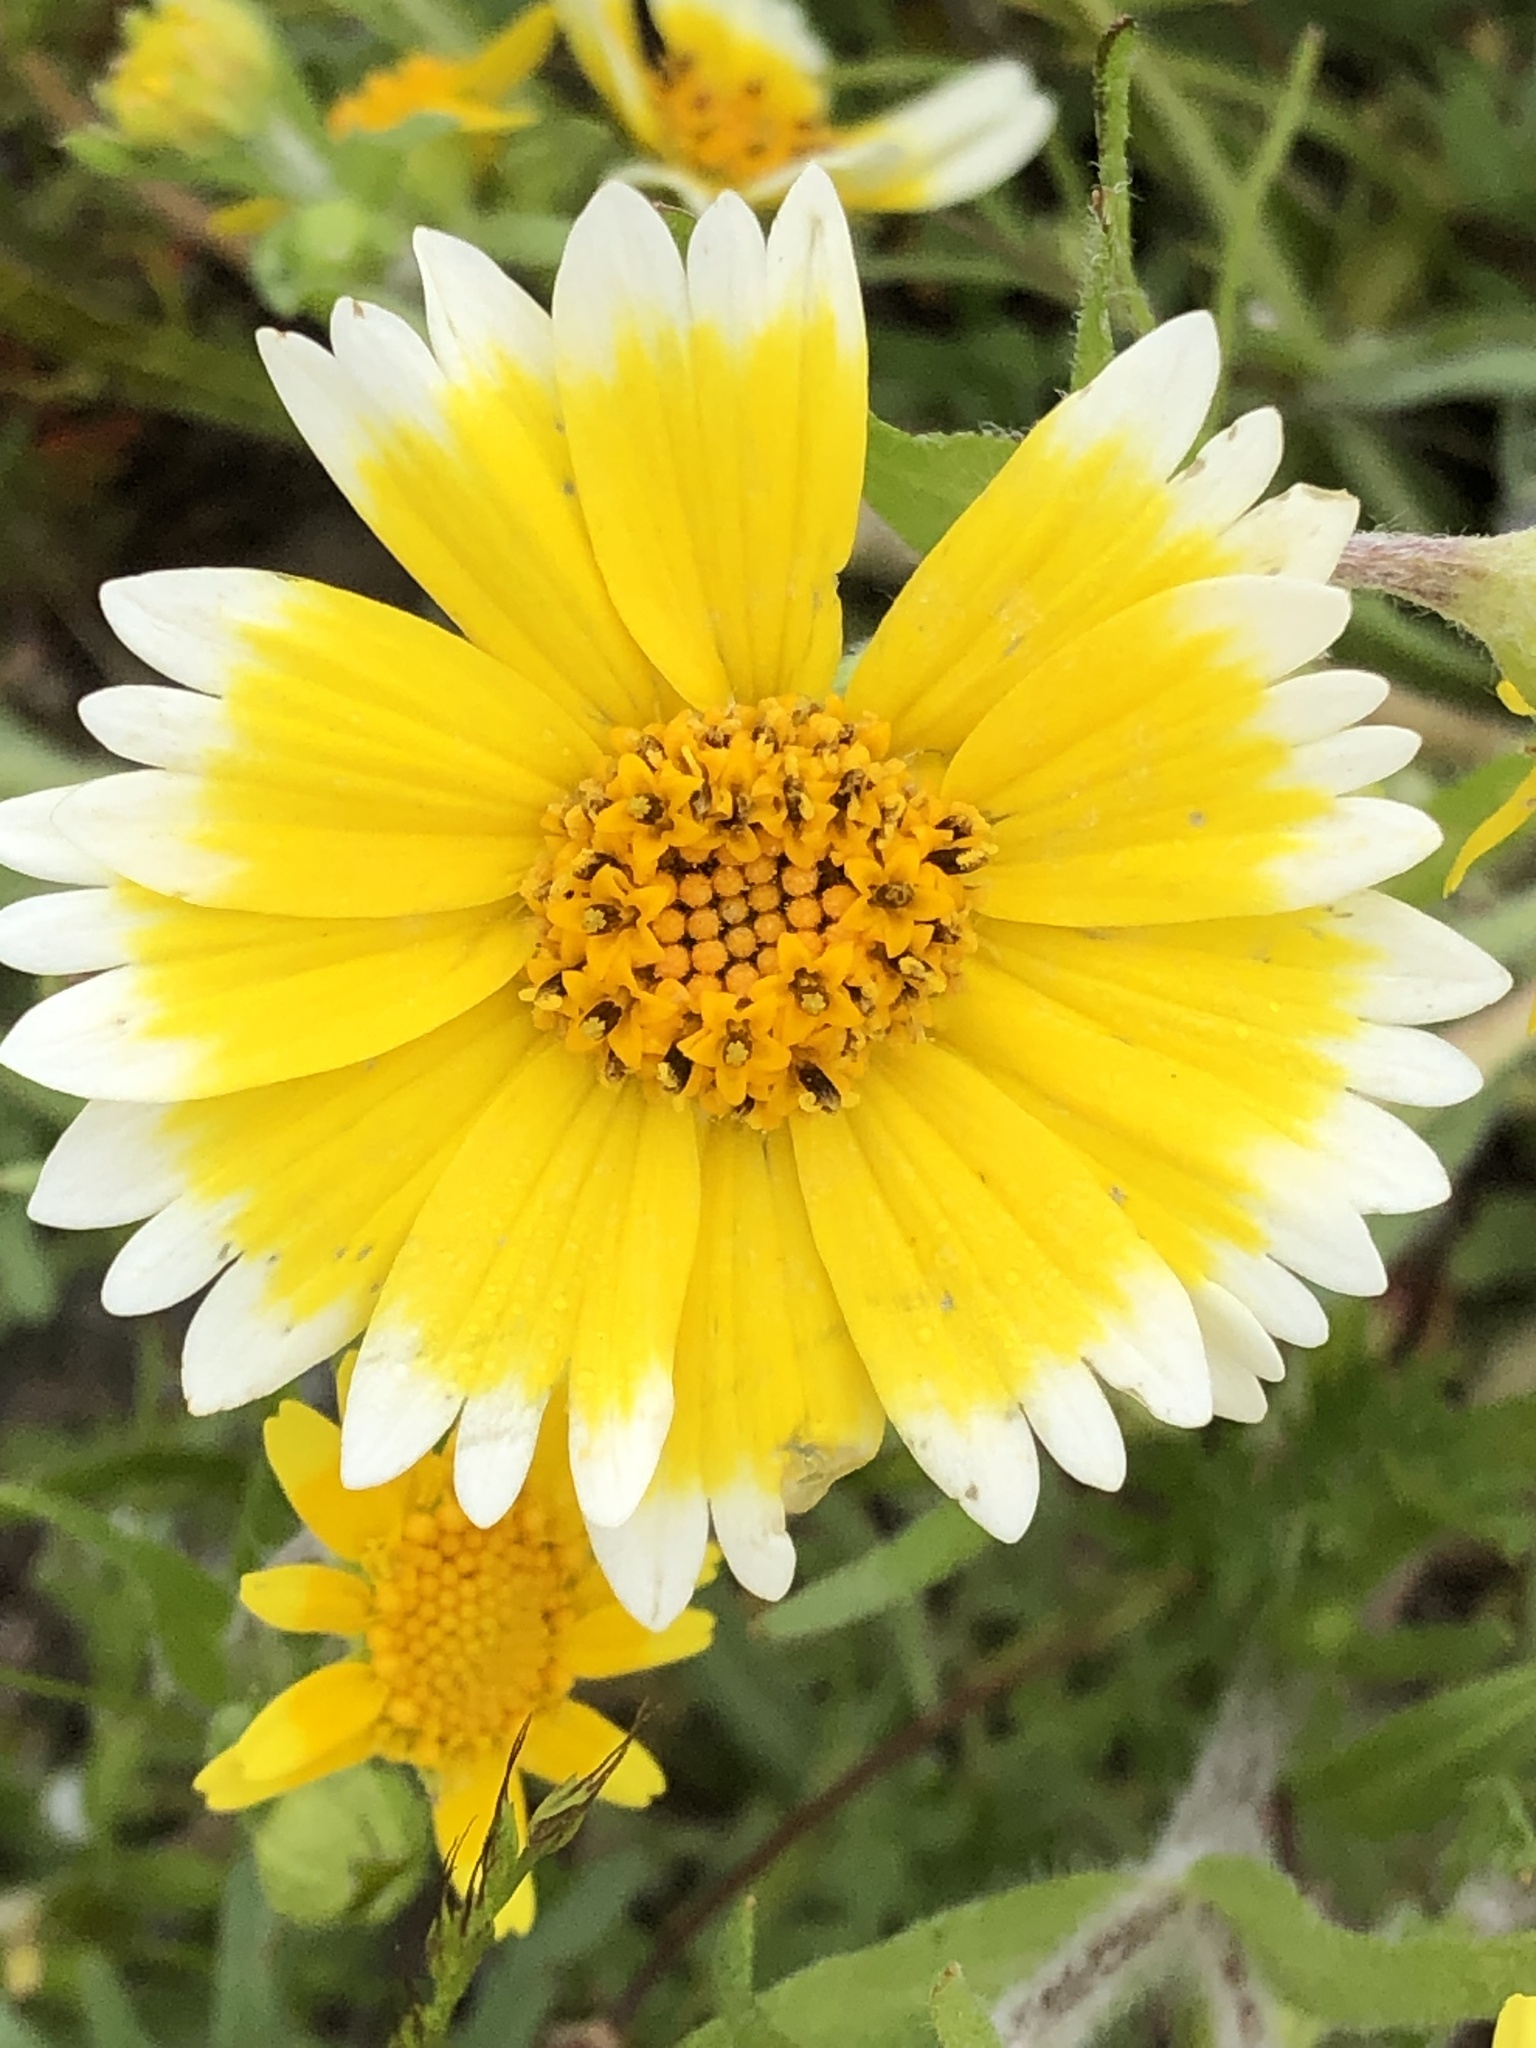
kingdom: Plantae
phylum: Tracheophyta
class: Magnoliopsida
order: Asterales
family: Asteraceae
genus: Layia
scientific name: Layia platyglossa
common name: Tidy-tips
